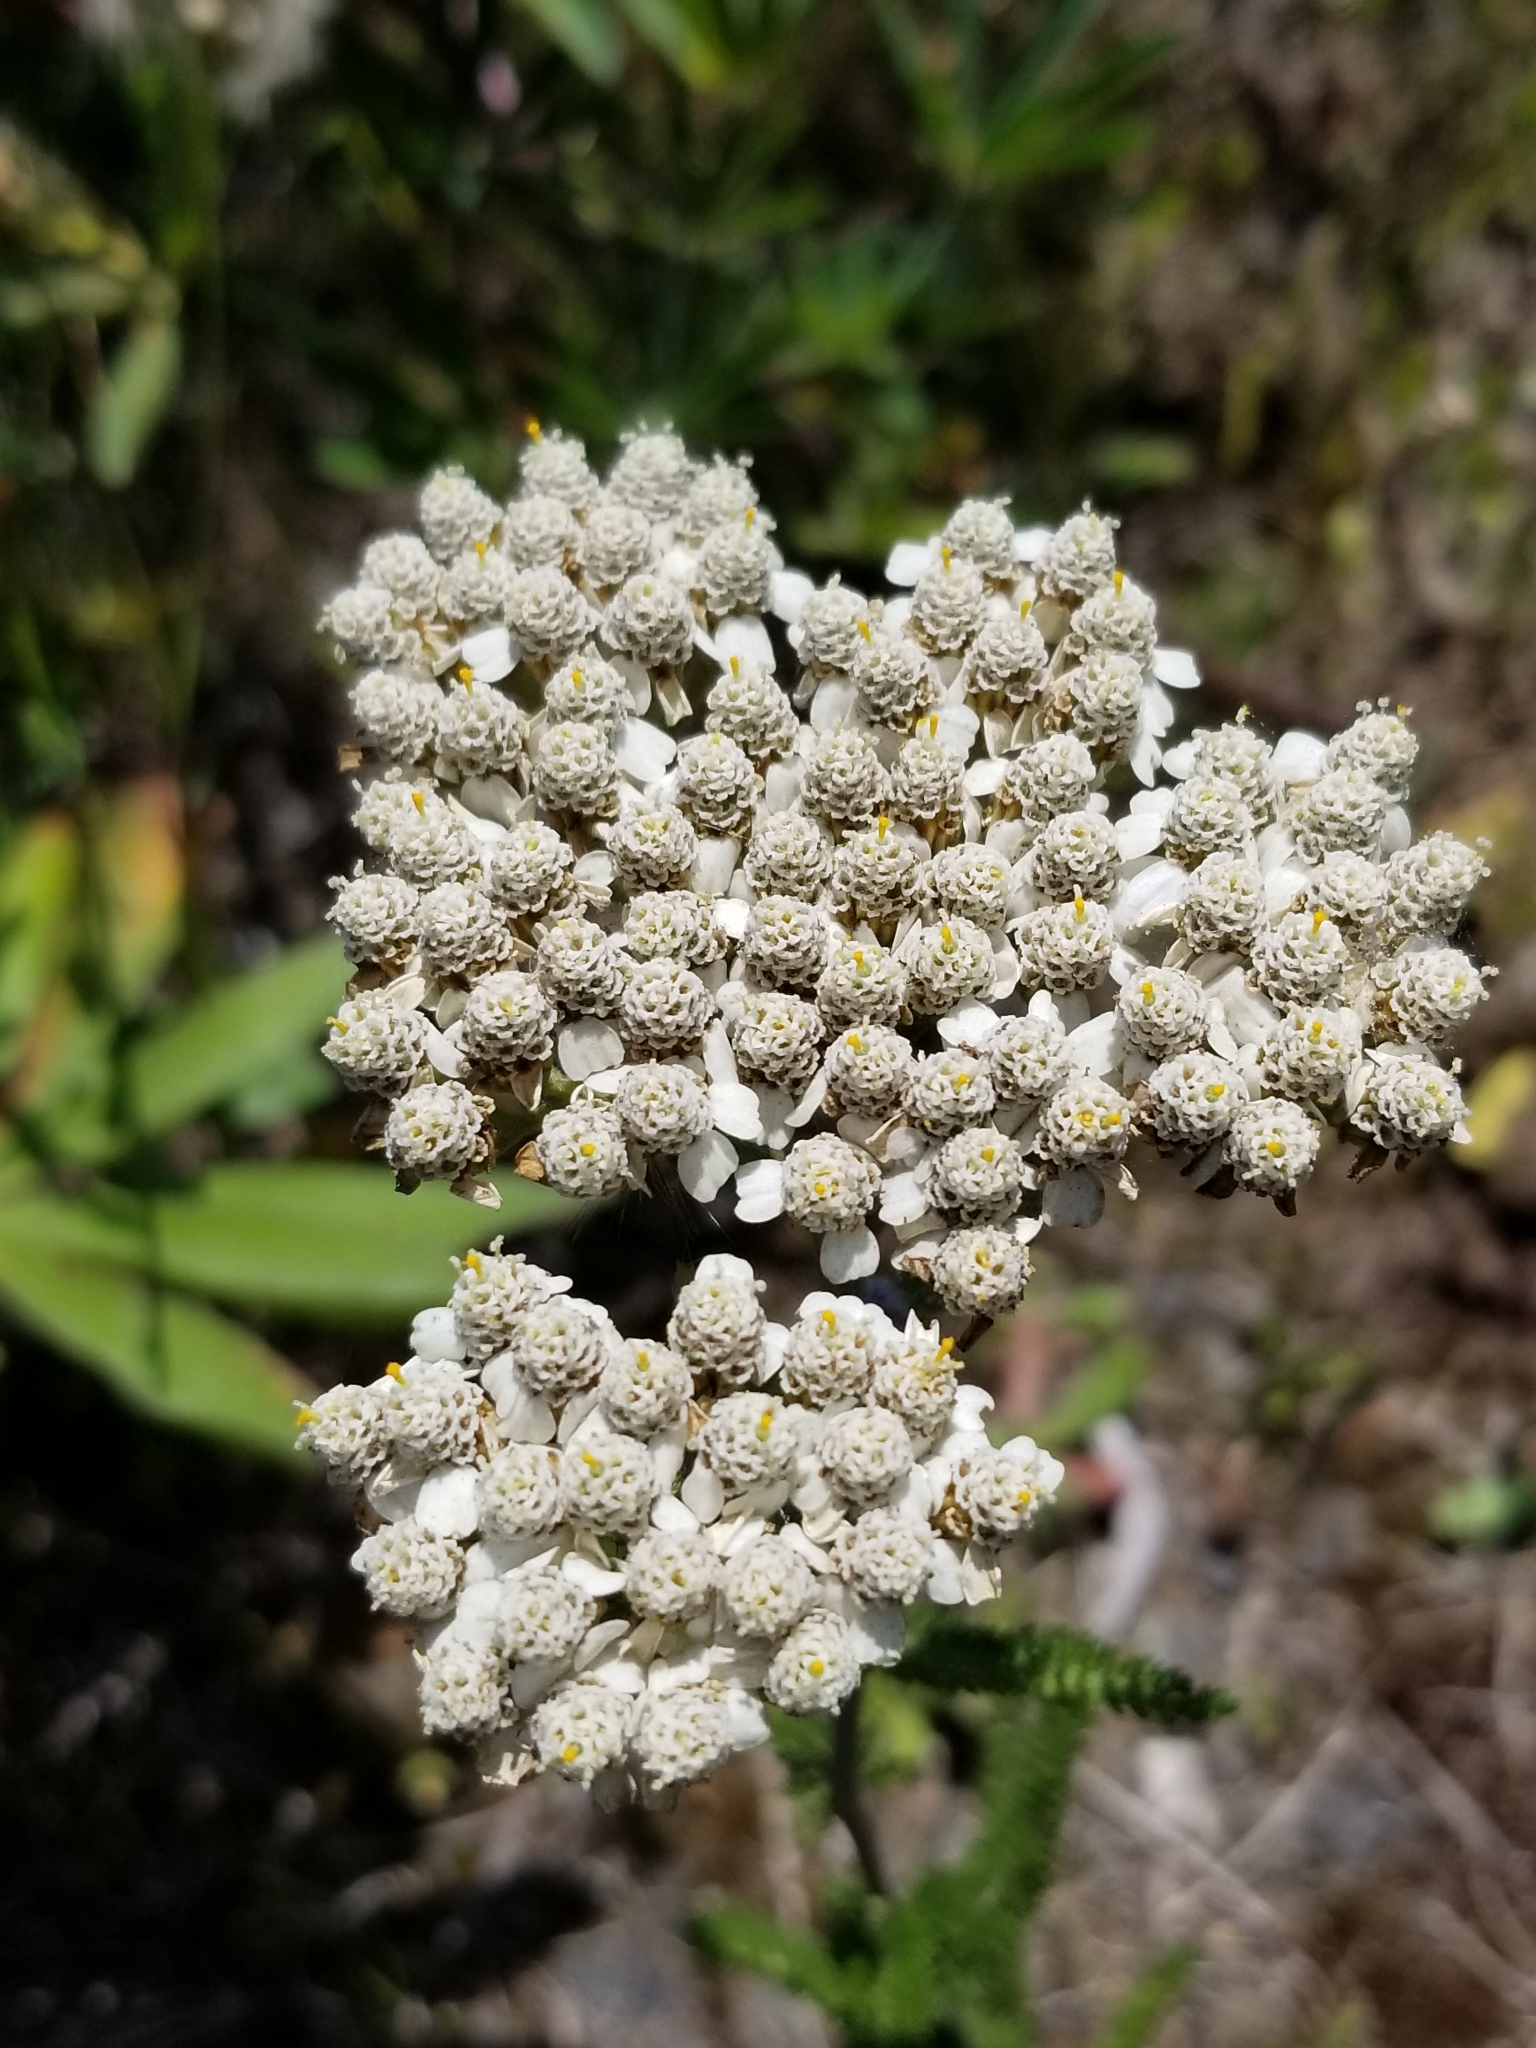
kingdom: Plantae
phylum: Tracheophyta
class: Magnoliopsida
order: Asterales
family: Asteraceae
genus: Achillea
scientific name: Achillea millefolium
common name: Yarrow
